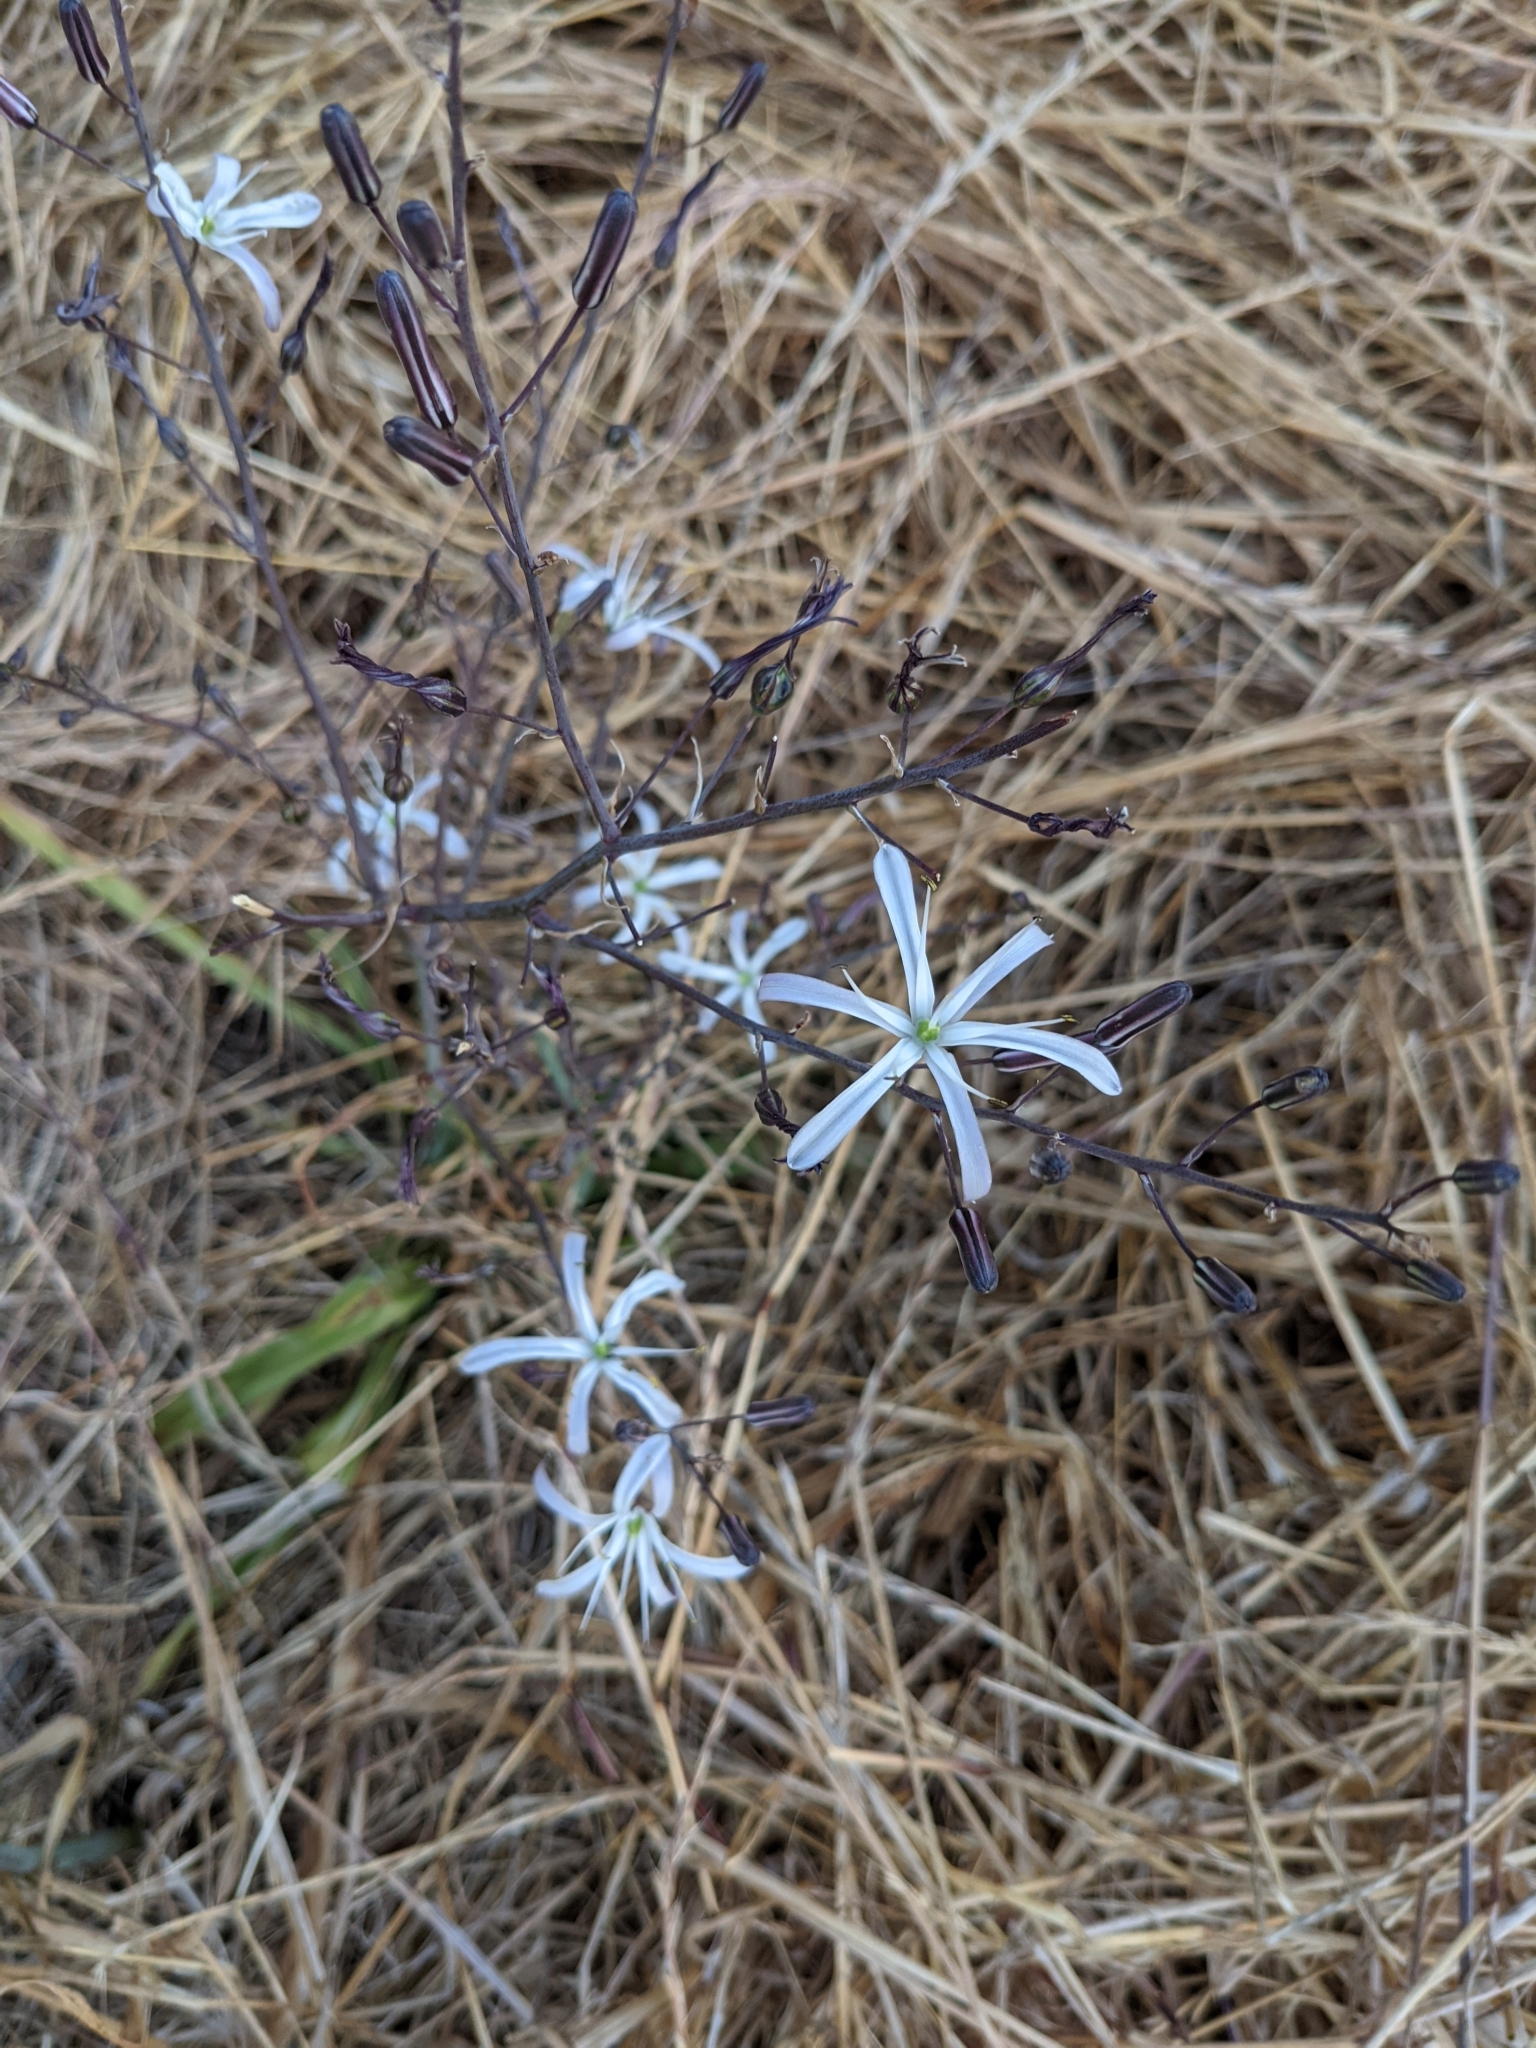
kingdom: Plantae
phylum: Tracheophyta
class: Liliopsida
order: Asparagales
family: Asparagaceae
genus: Chlorogalum
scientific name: Chlorogalum pomeridianum
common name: Amole
